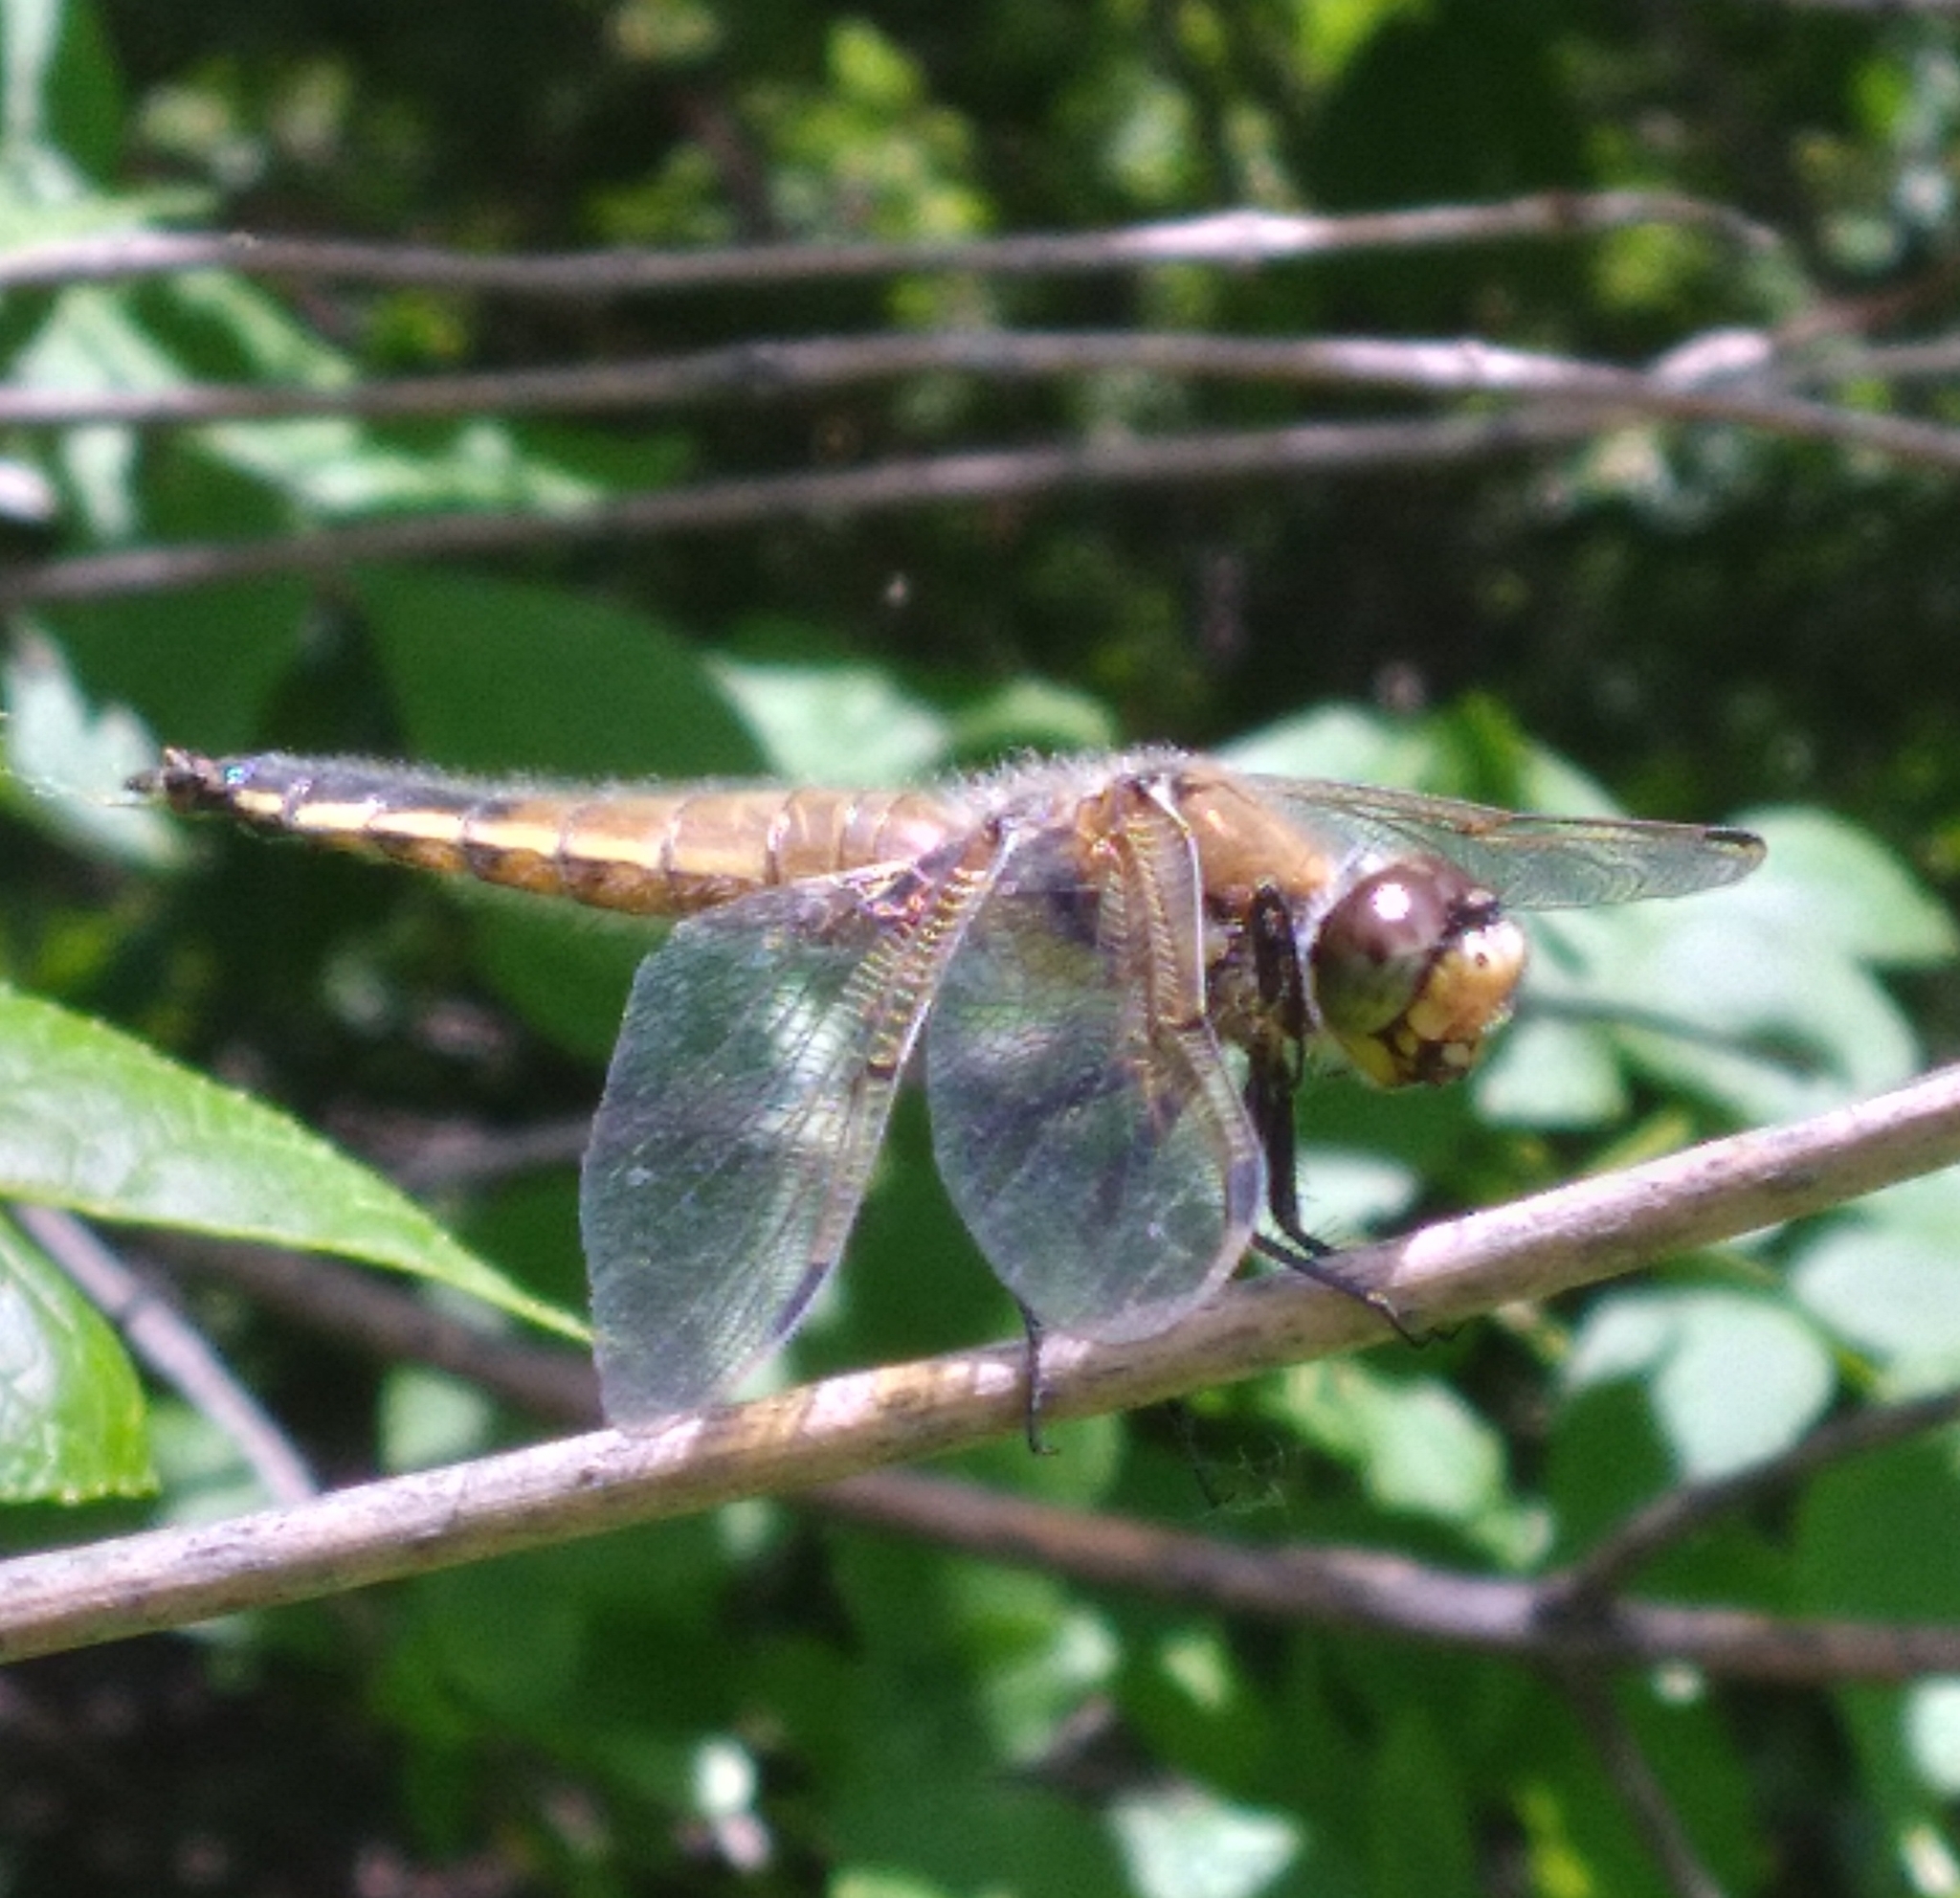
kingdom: Animalia
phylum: Arthropoda
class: Insecta
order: Odonata
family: Libellulidae
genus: Libellula
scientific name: Libellula quadrimaculata
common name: Four-spotted chaser
